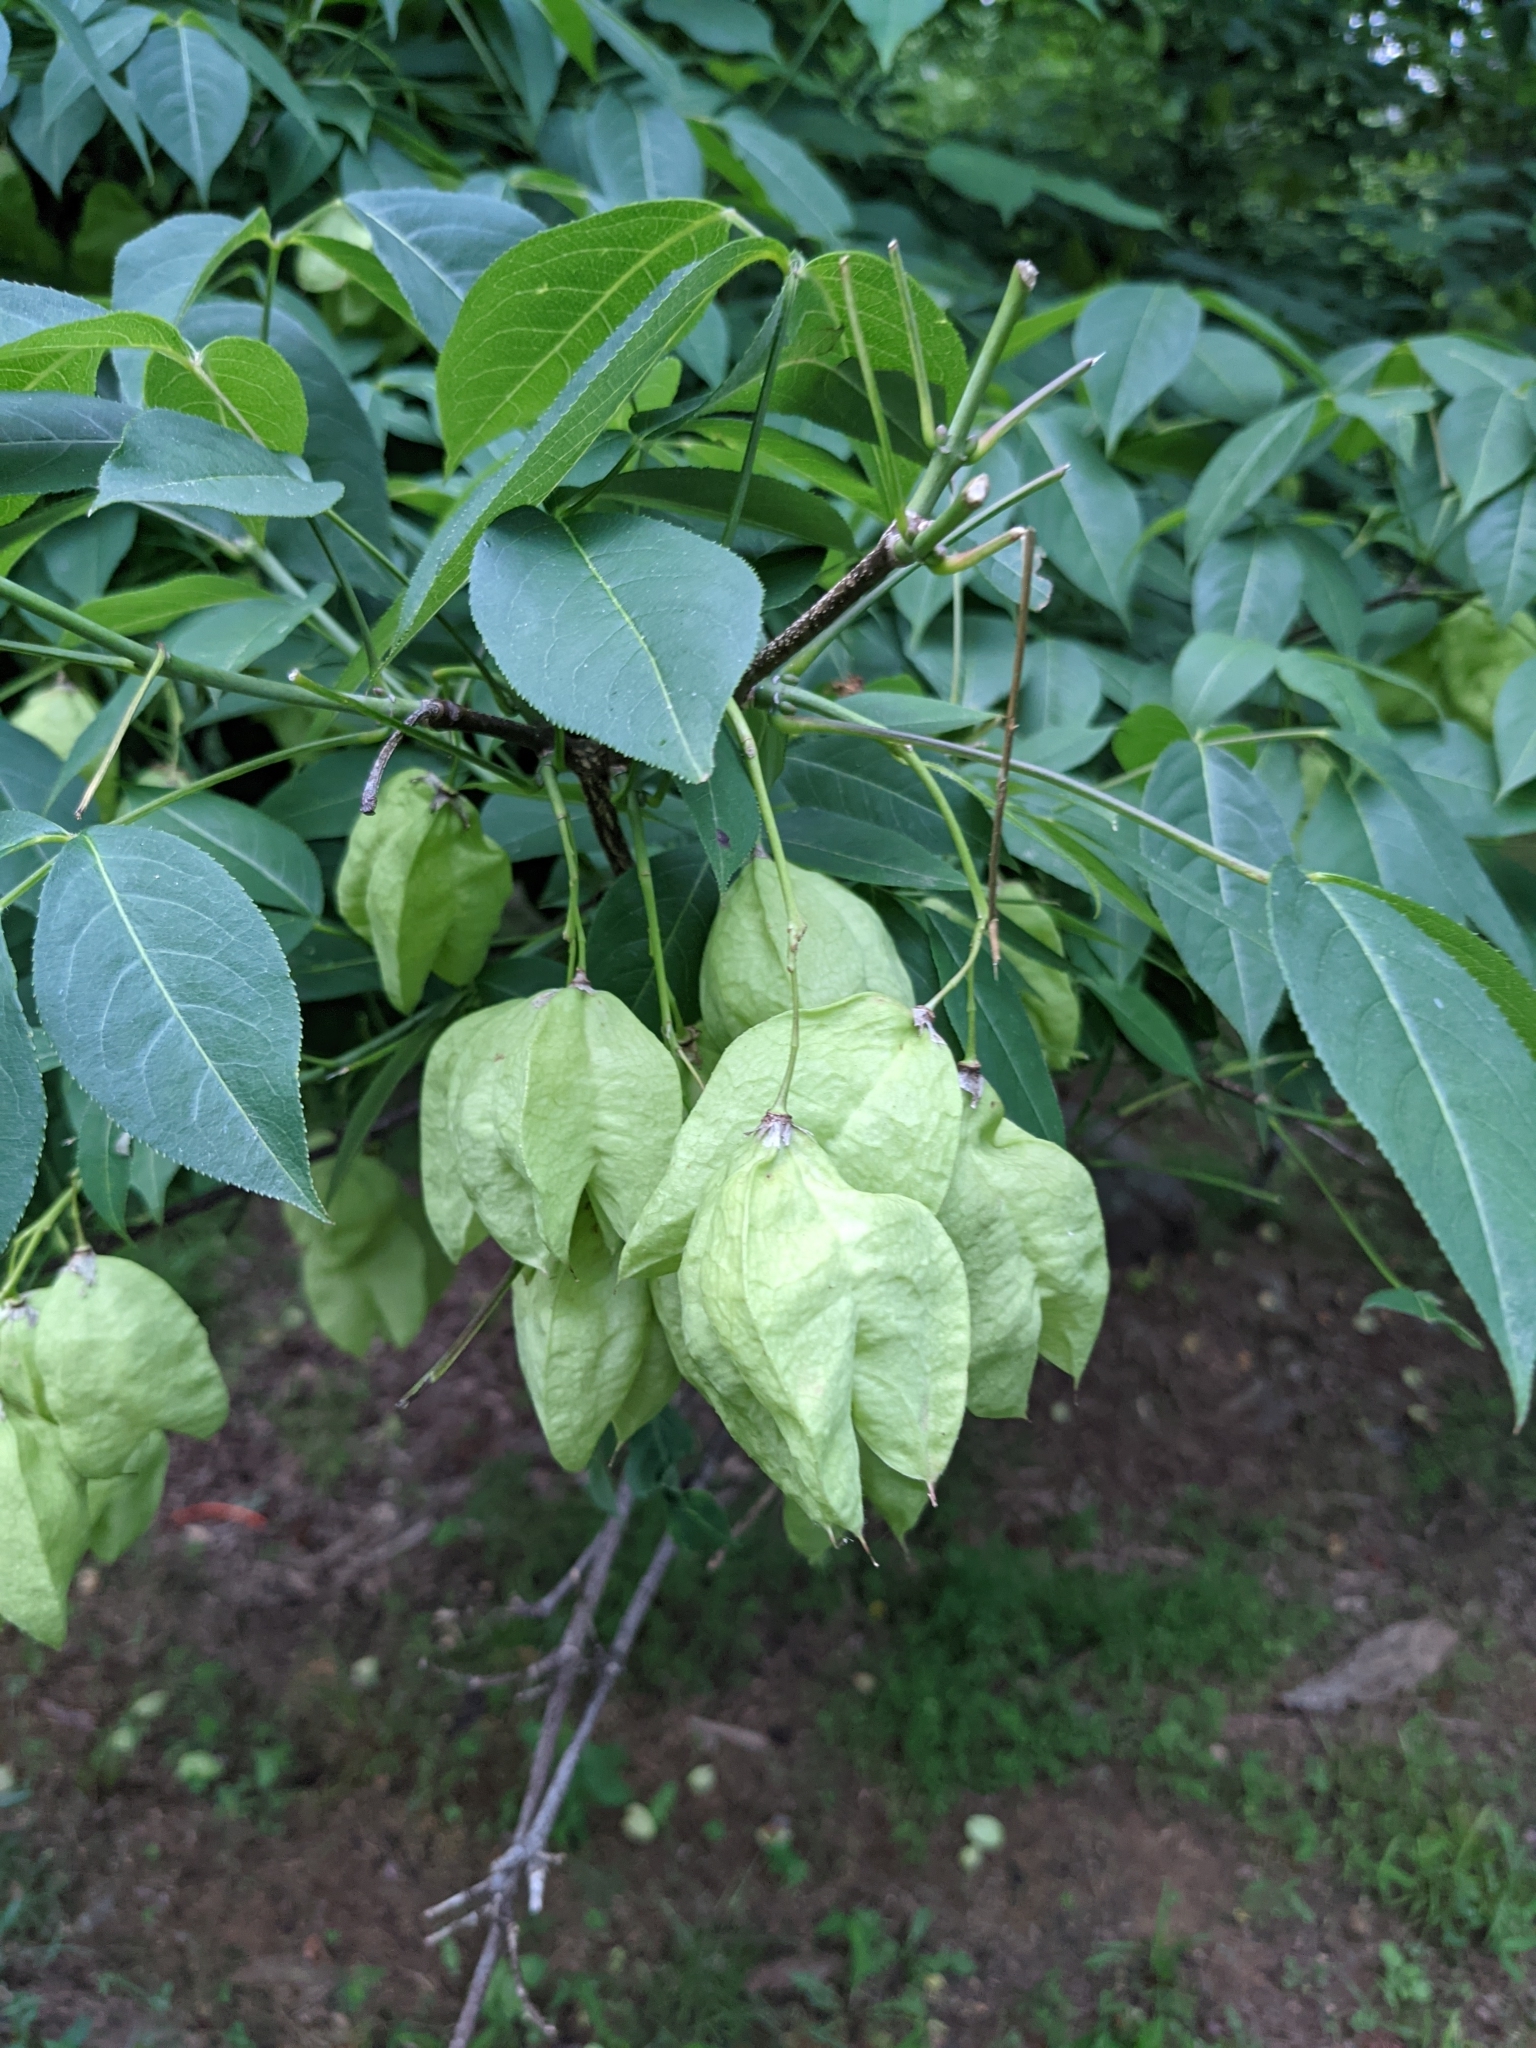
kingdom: Plantae
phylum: Tracheophyta
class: Magnoliopsida
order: Crossosomatales
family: Staphyleaceae
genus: Staphylea
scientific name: Staphylea trifolia
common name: American bladdernut
